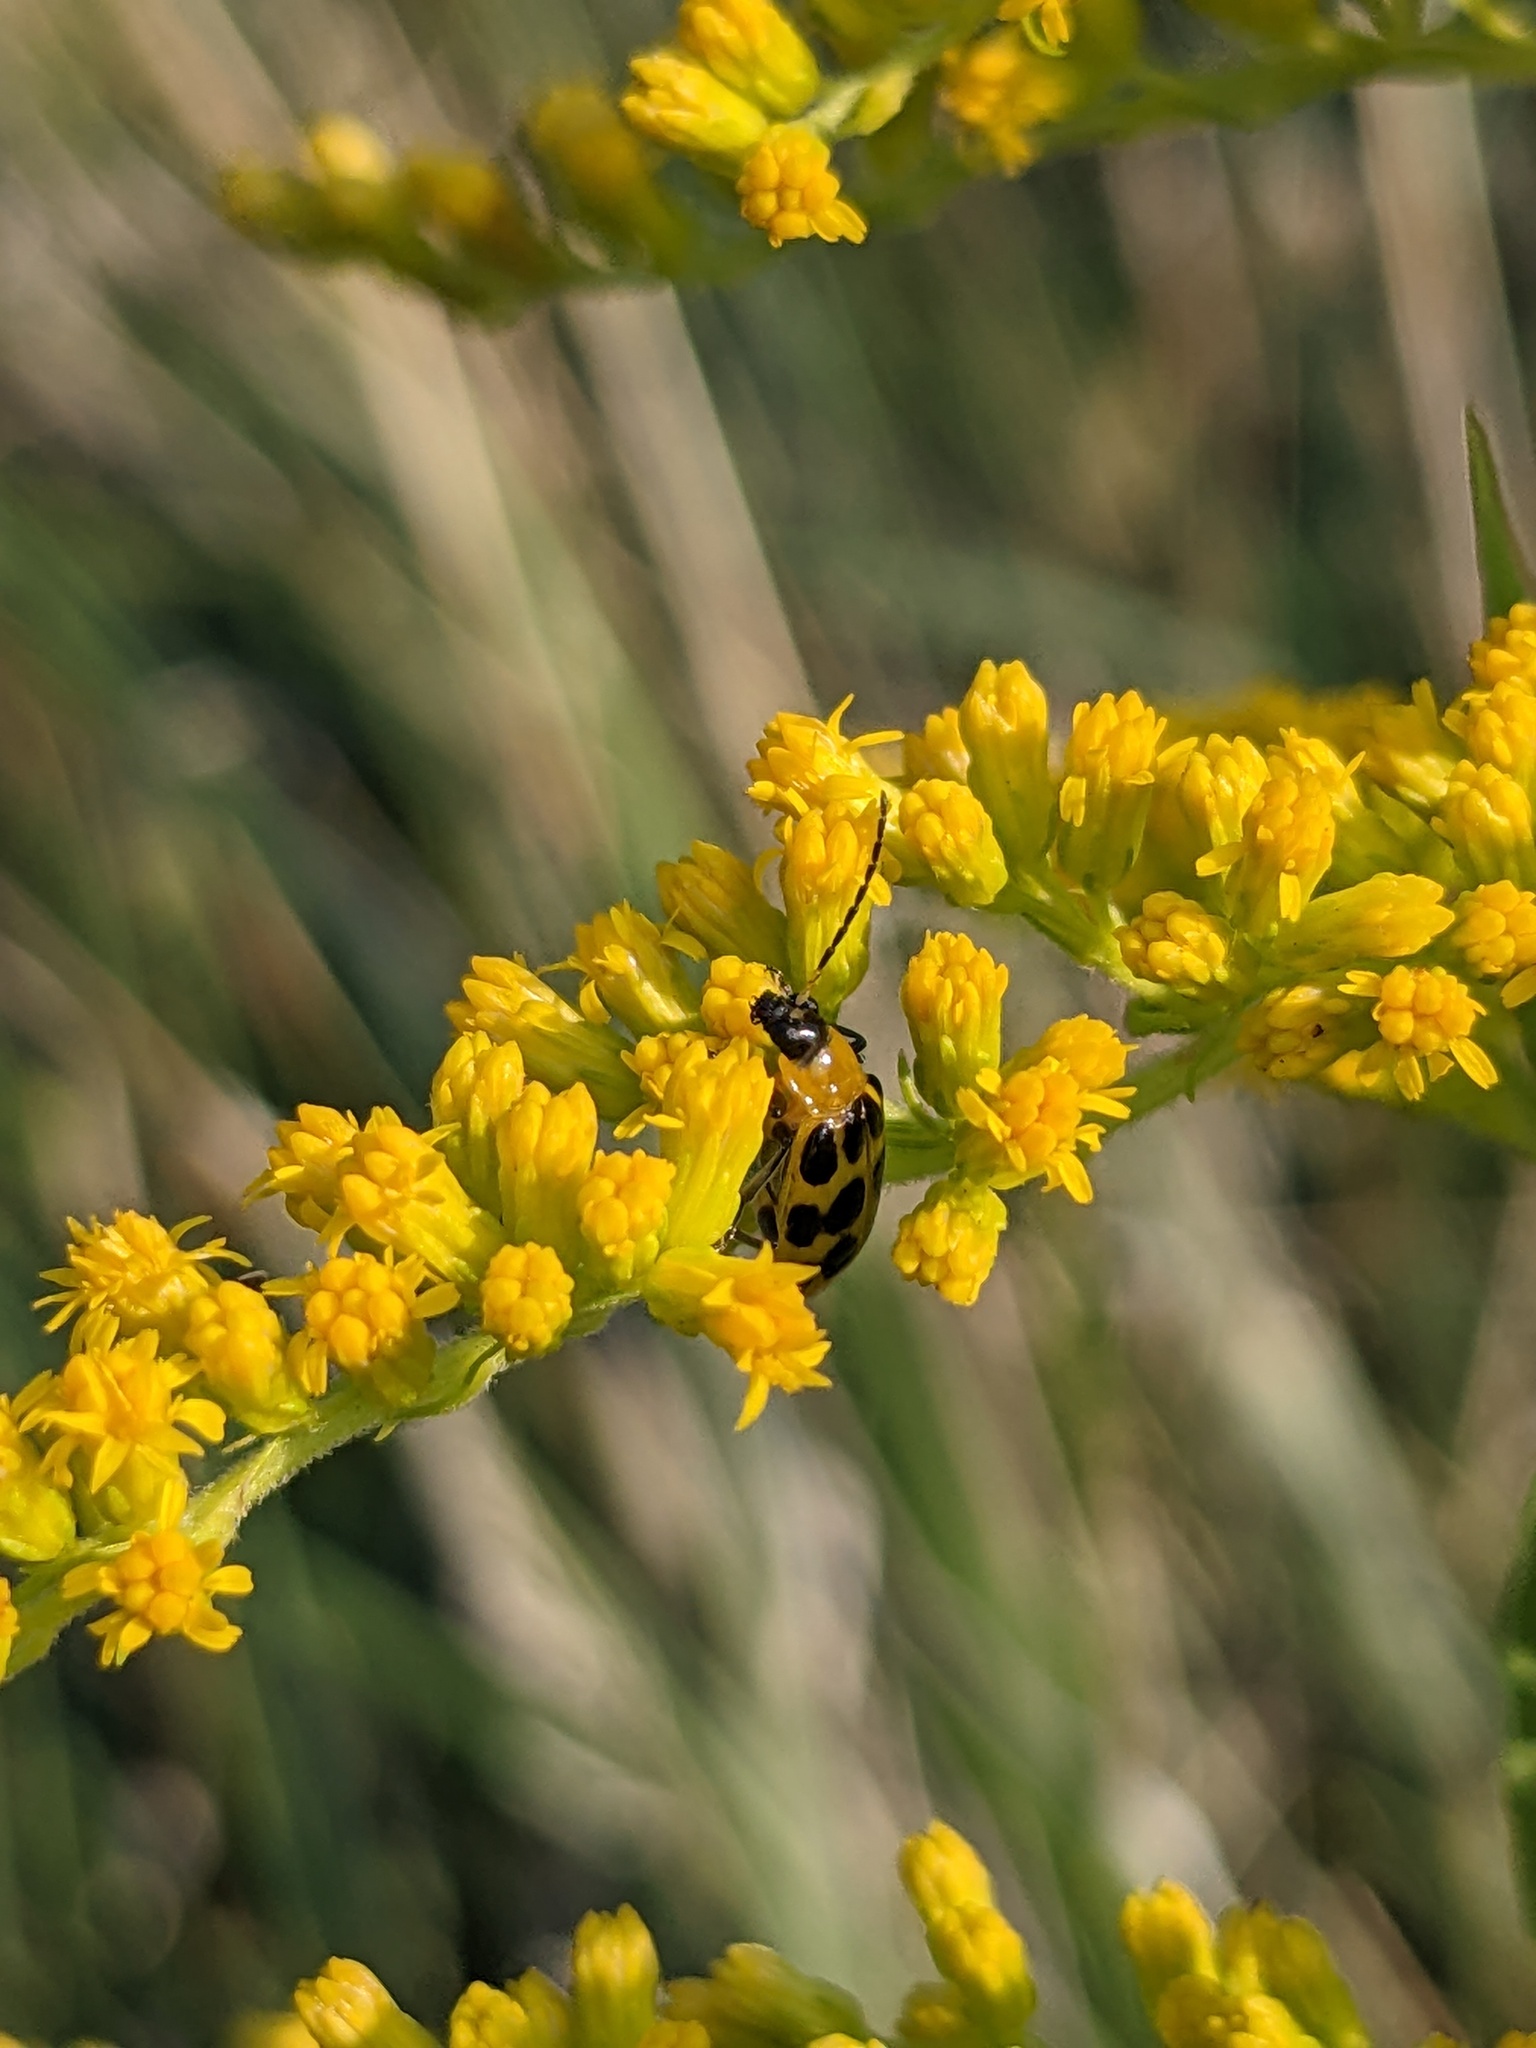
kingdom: Animalia
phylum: Arthropoda
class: Insecta
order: Coleoptera
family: Chrysomelidae
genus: Diabrotica
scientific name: Diabrotica undecimpunctata
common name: Spotted cucumber beetle
